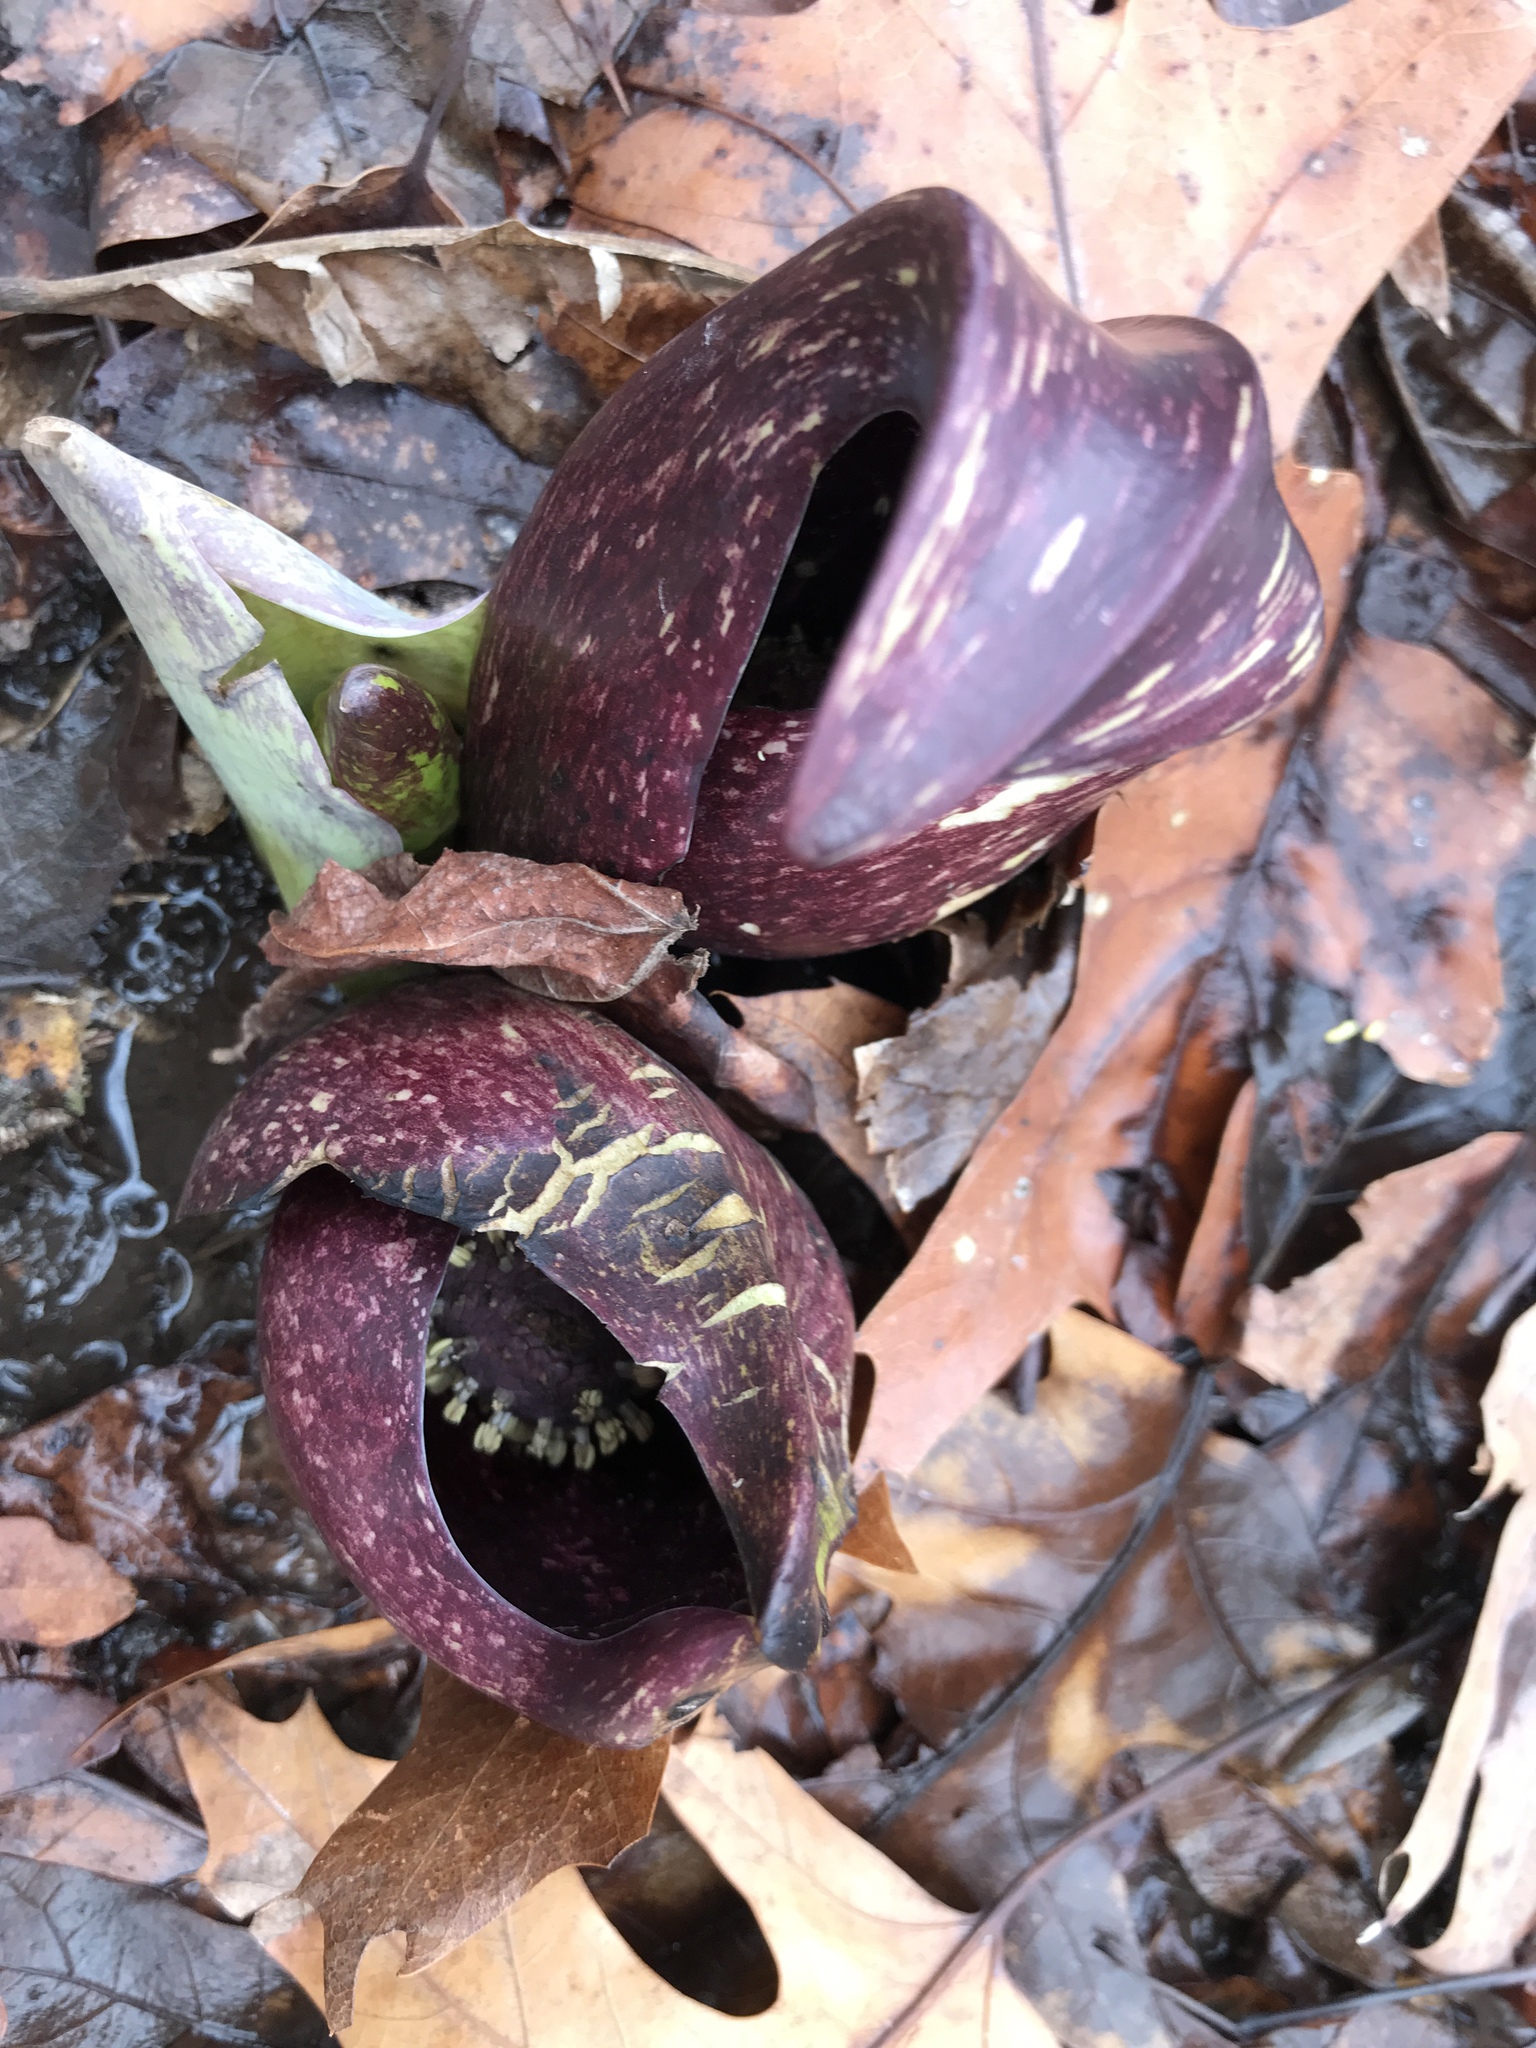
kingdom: Plantae
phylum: Tracheophyta
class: Liliopsida
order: Alismatales
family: Araceae
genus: Symplocarpus
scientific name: Symplocarpus foetidus
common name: Eastern skunk cabbage
